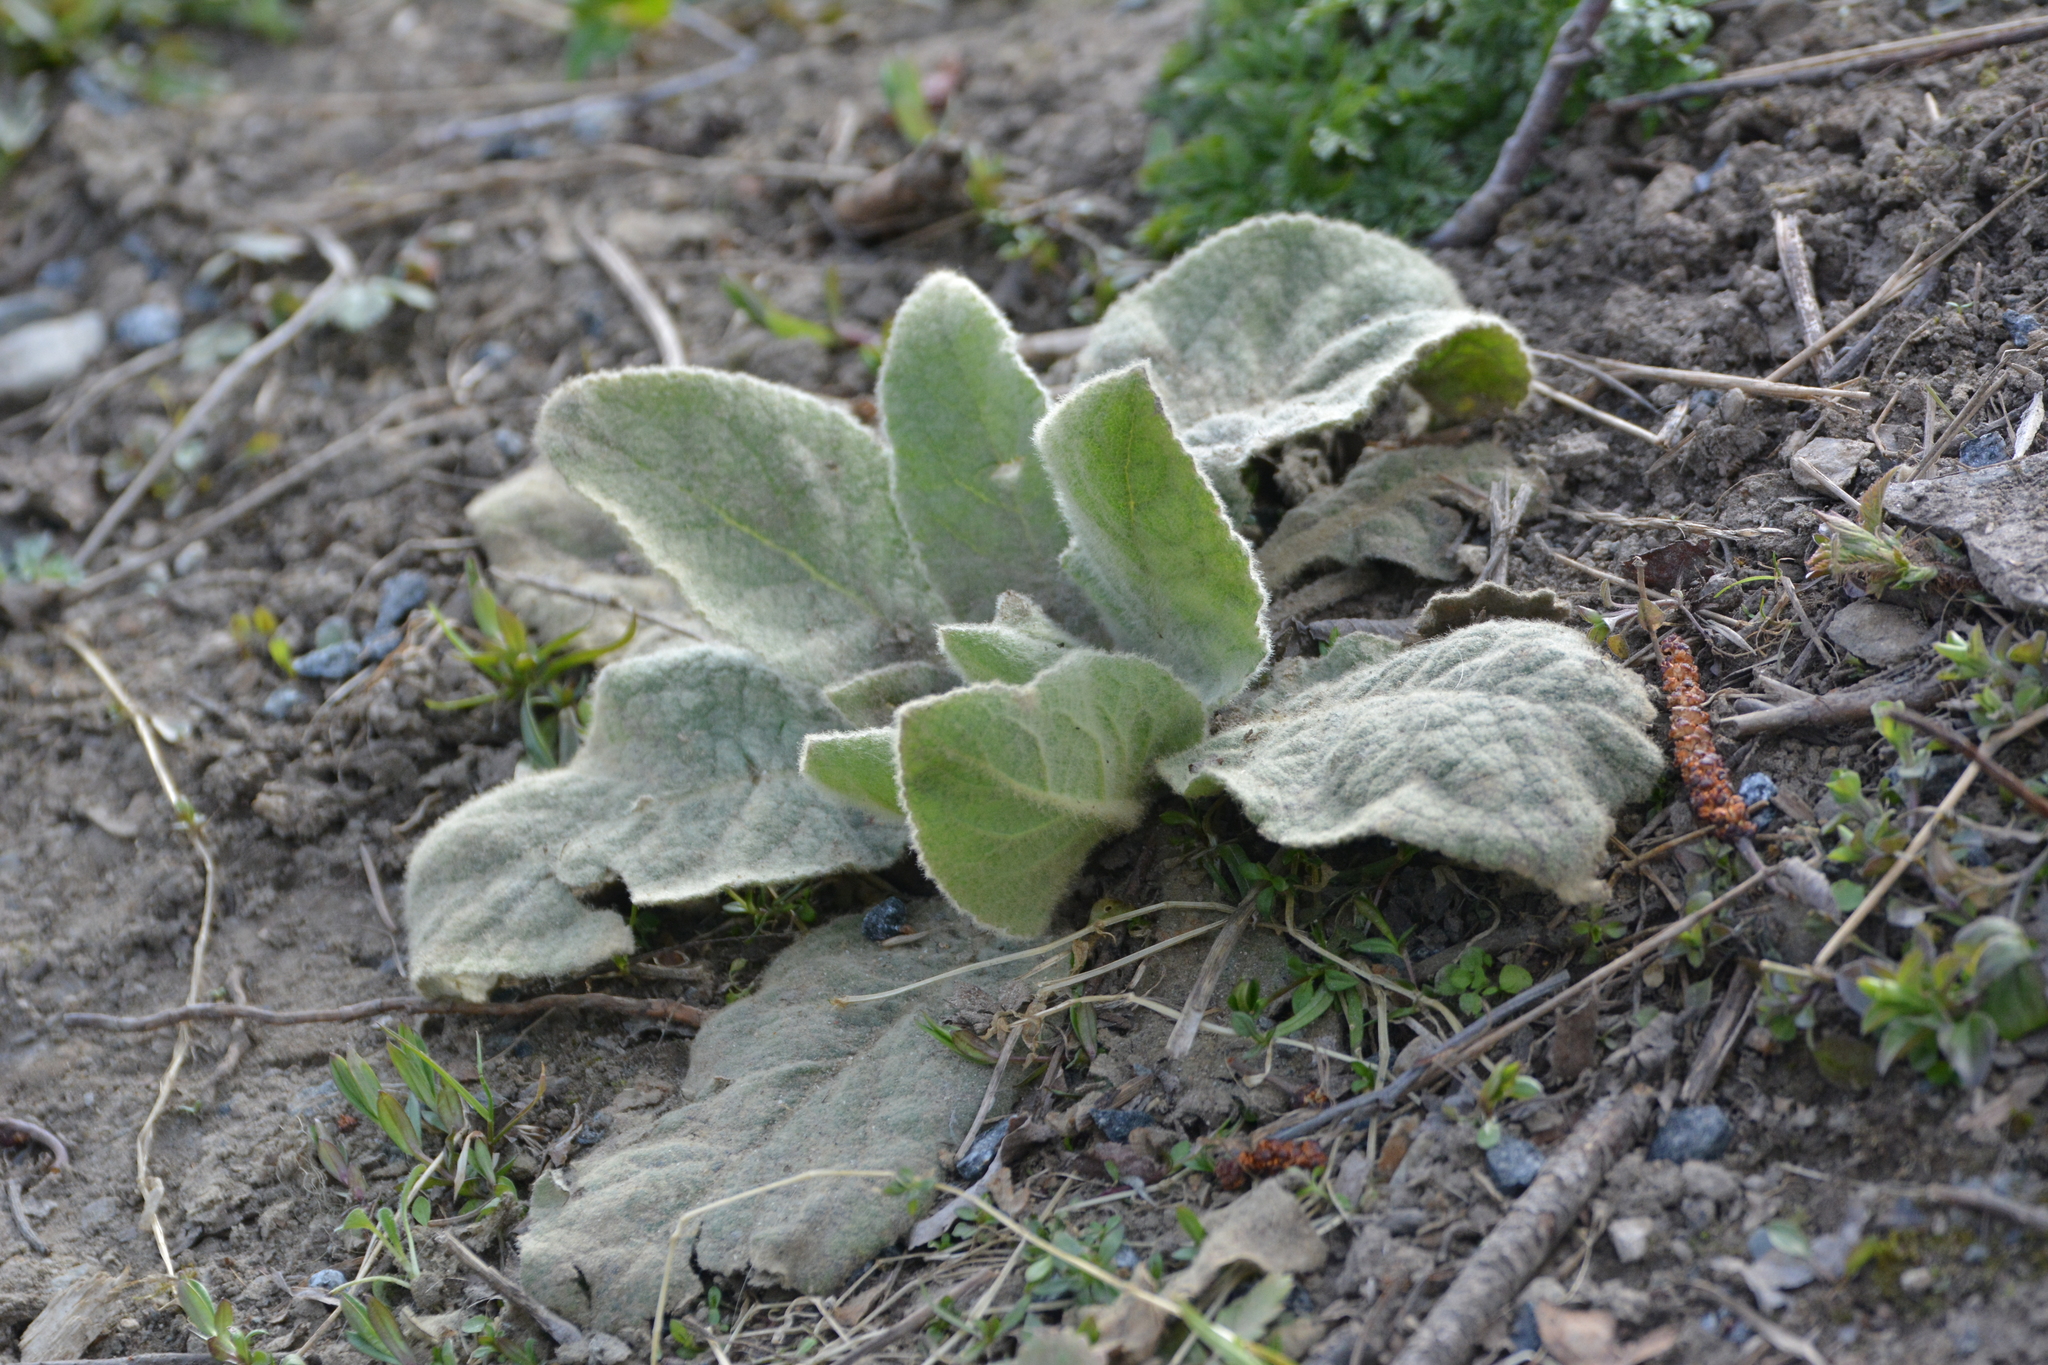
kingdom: Plantae
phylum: Tracheophyta
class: Magnoliopsida
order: Lamiales
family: Scrophulariaceae
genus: Verbascum
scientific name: Verbascum thapsus
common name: Common mullein
